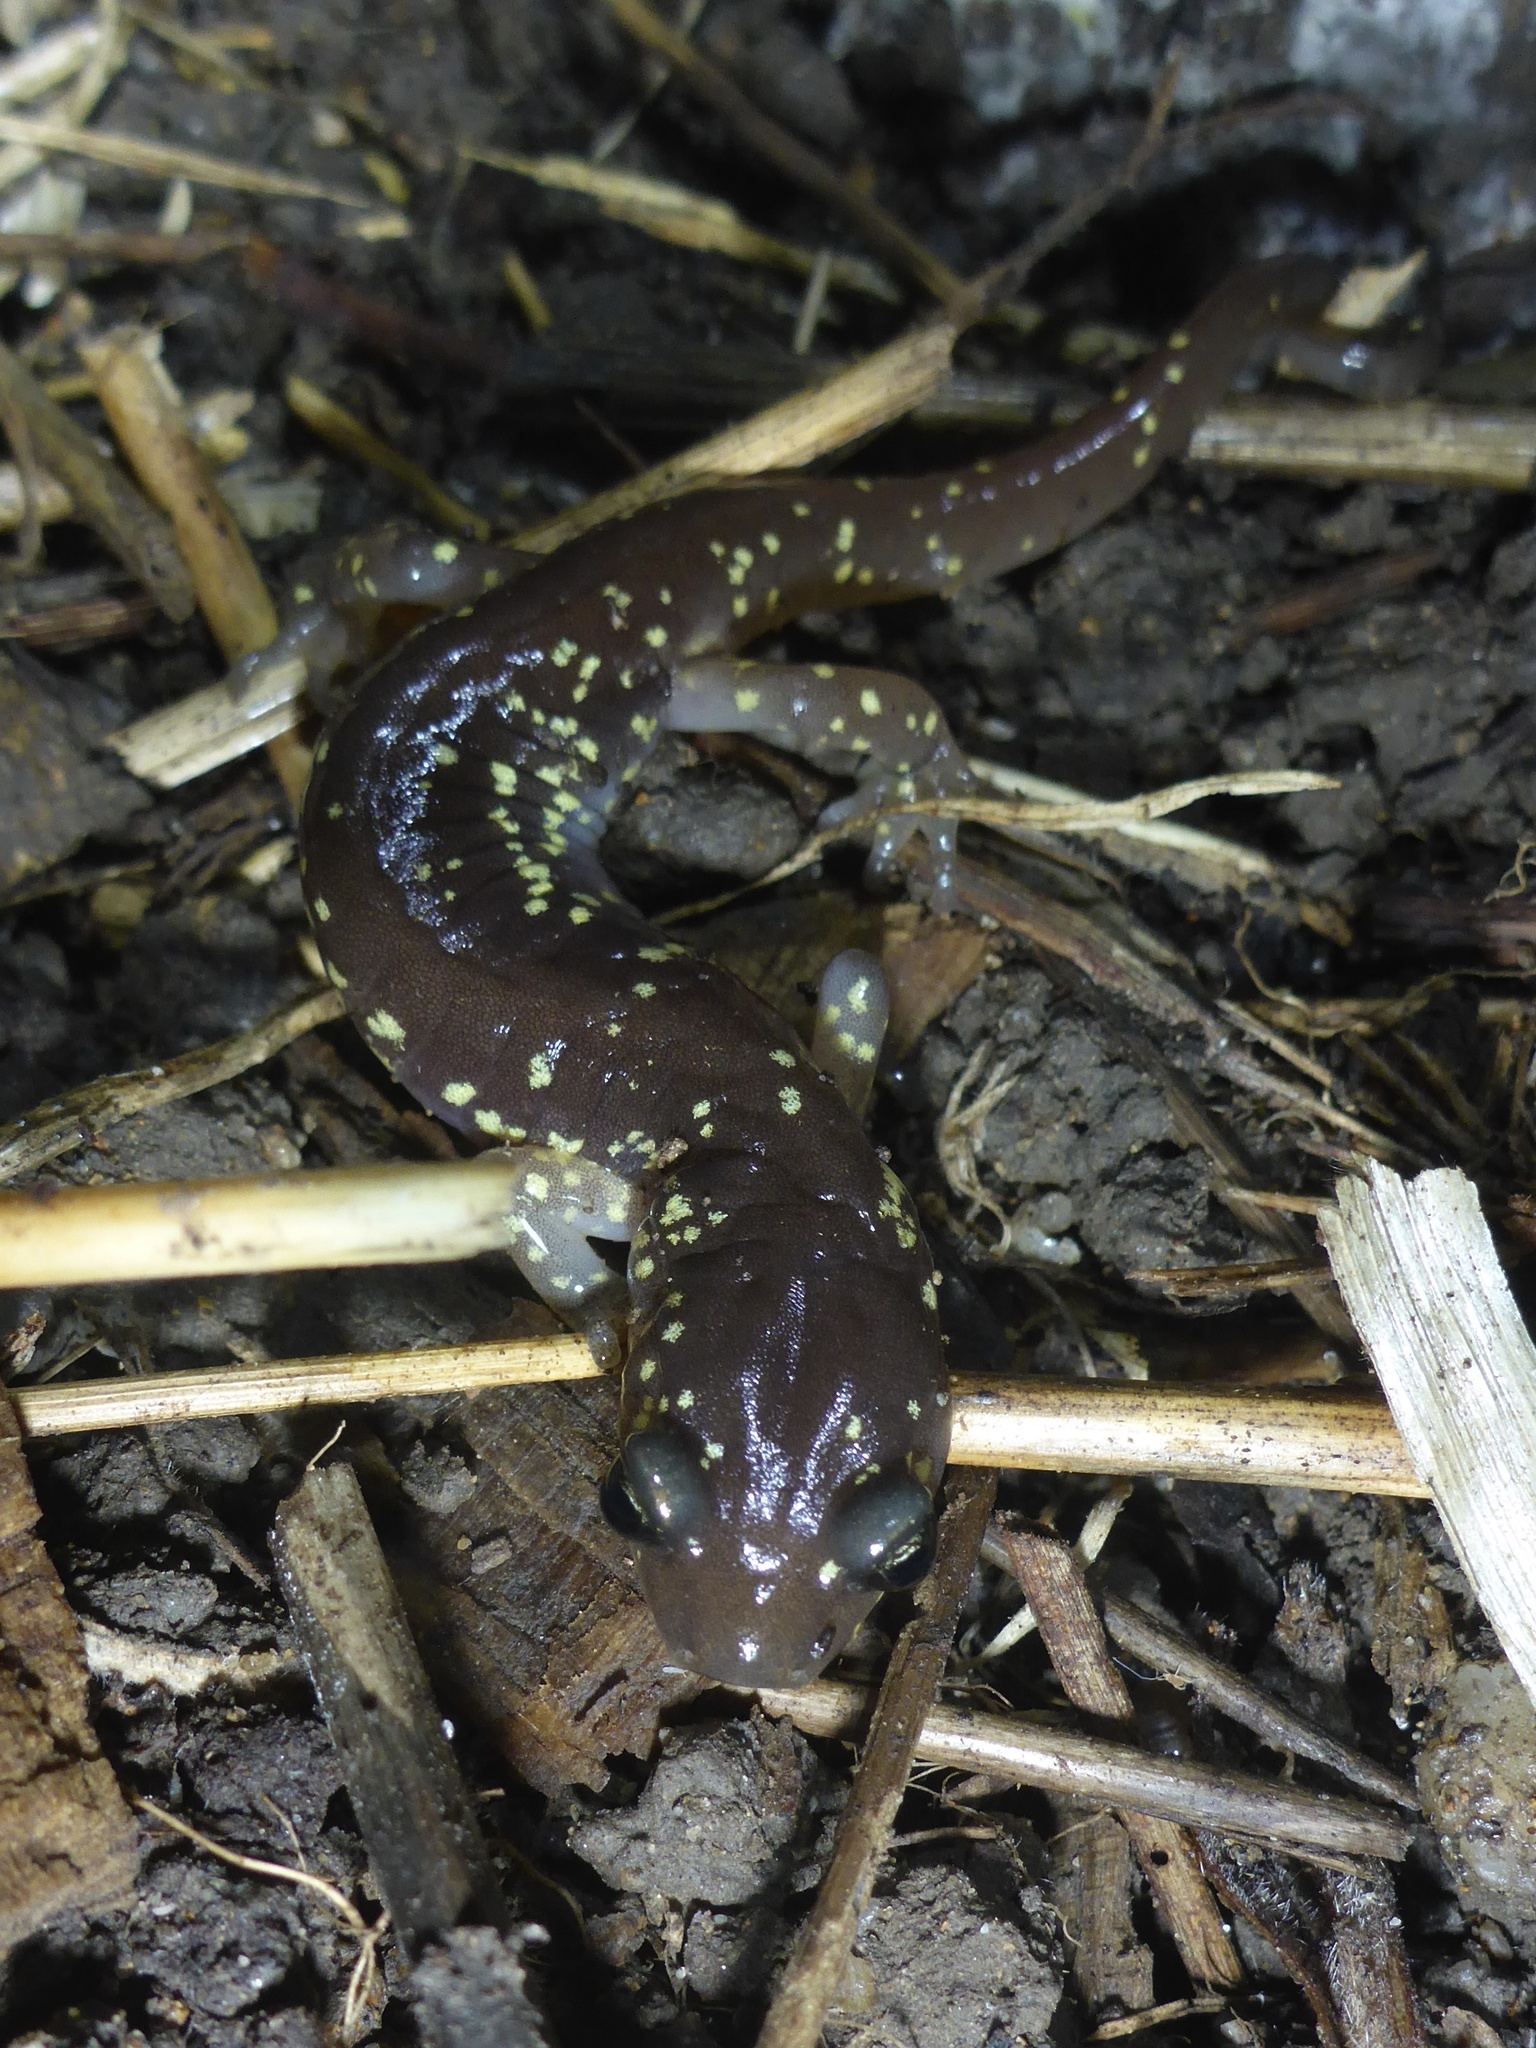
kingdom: Animalia
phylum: Chordata
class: Amphibia
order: Caudata
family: Plethodontidae
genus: Aneides
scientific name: Aneides lugubris
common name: Arboreal salamander
